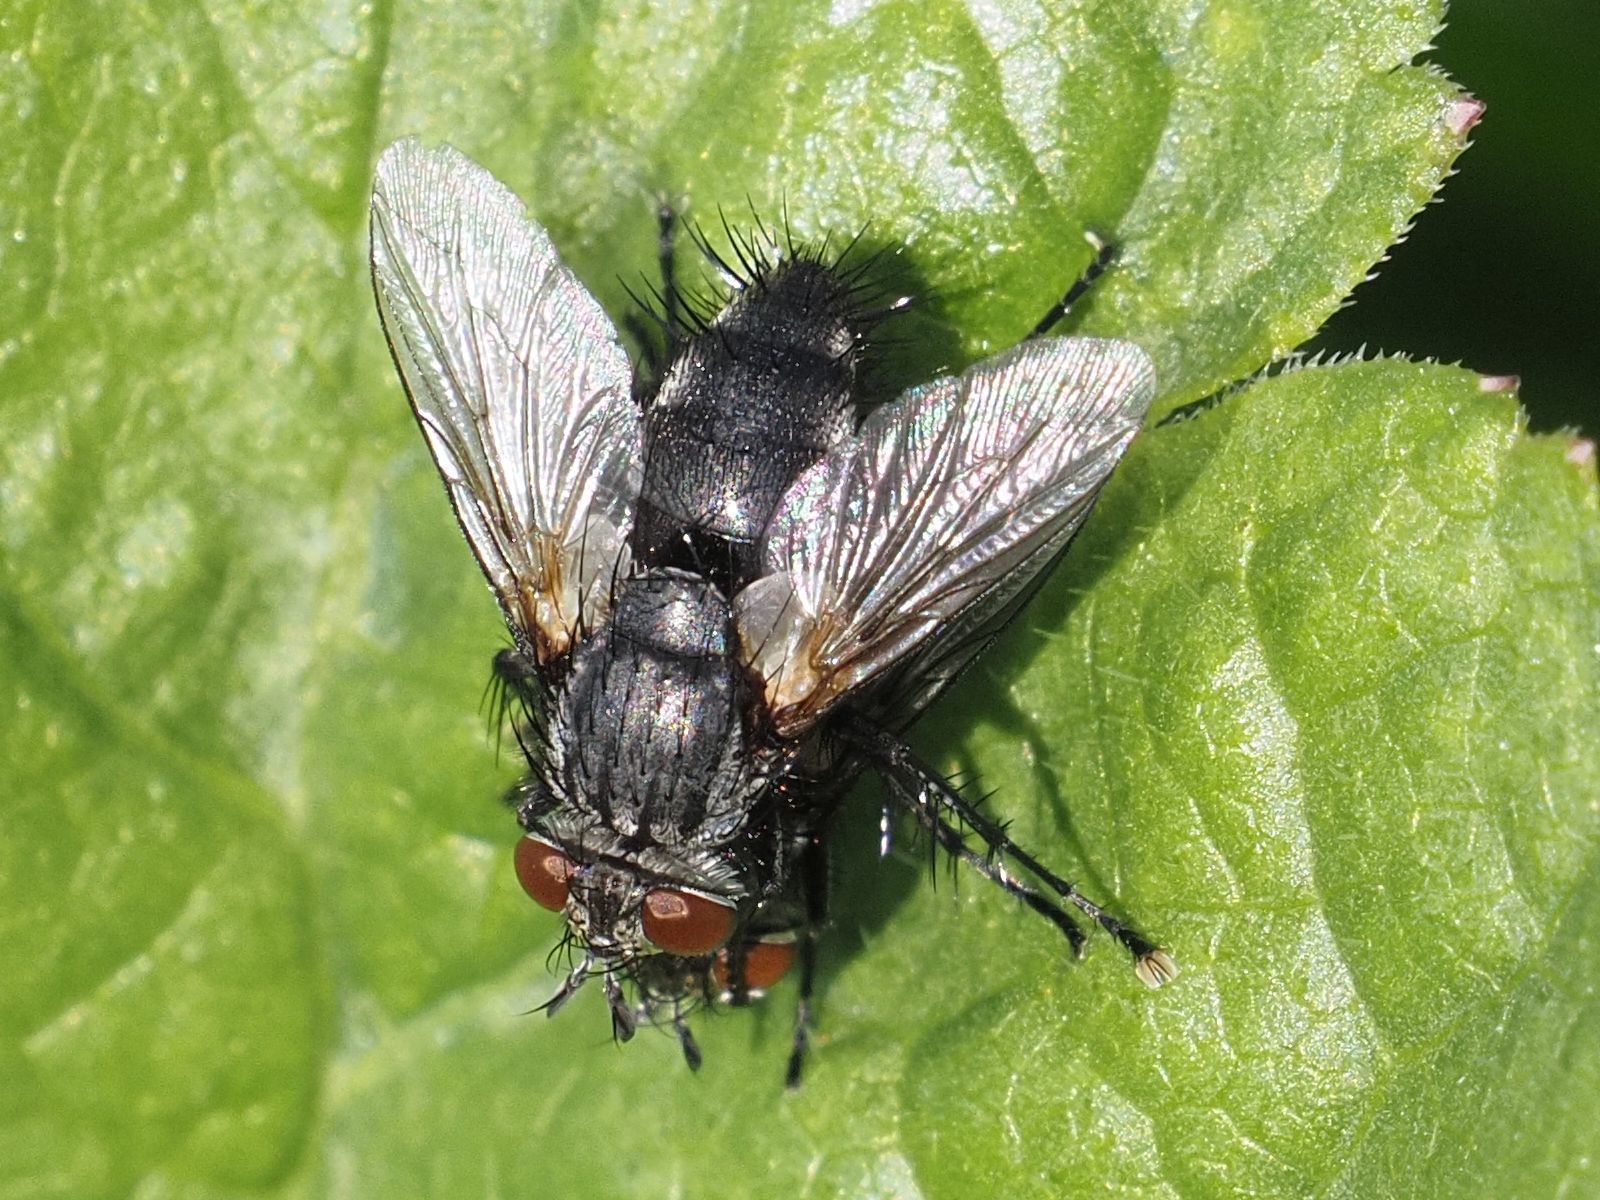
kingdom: Animalia
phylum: Arthropoda
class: Insecta
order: Diptera
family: Tachinidae
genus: Voria
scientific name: Voria ruralis
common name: Parasitic fly
